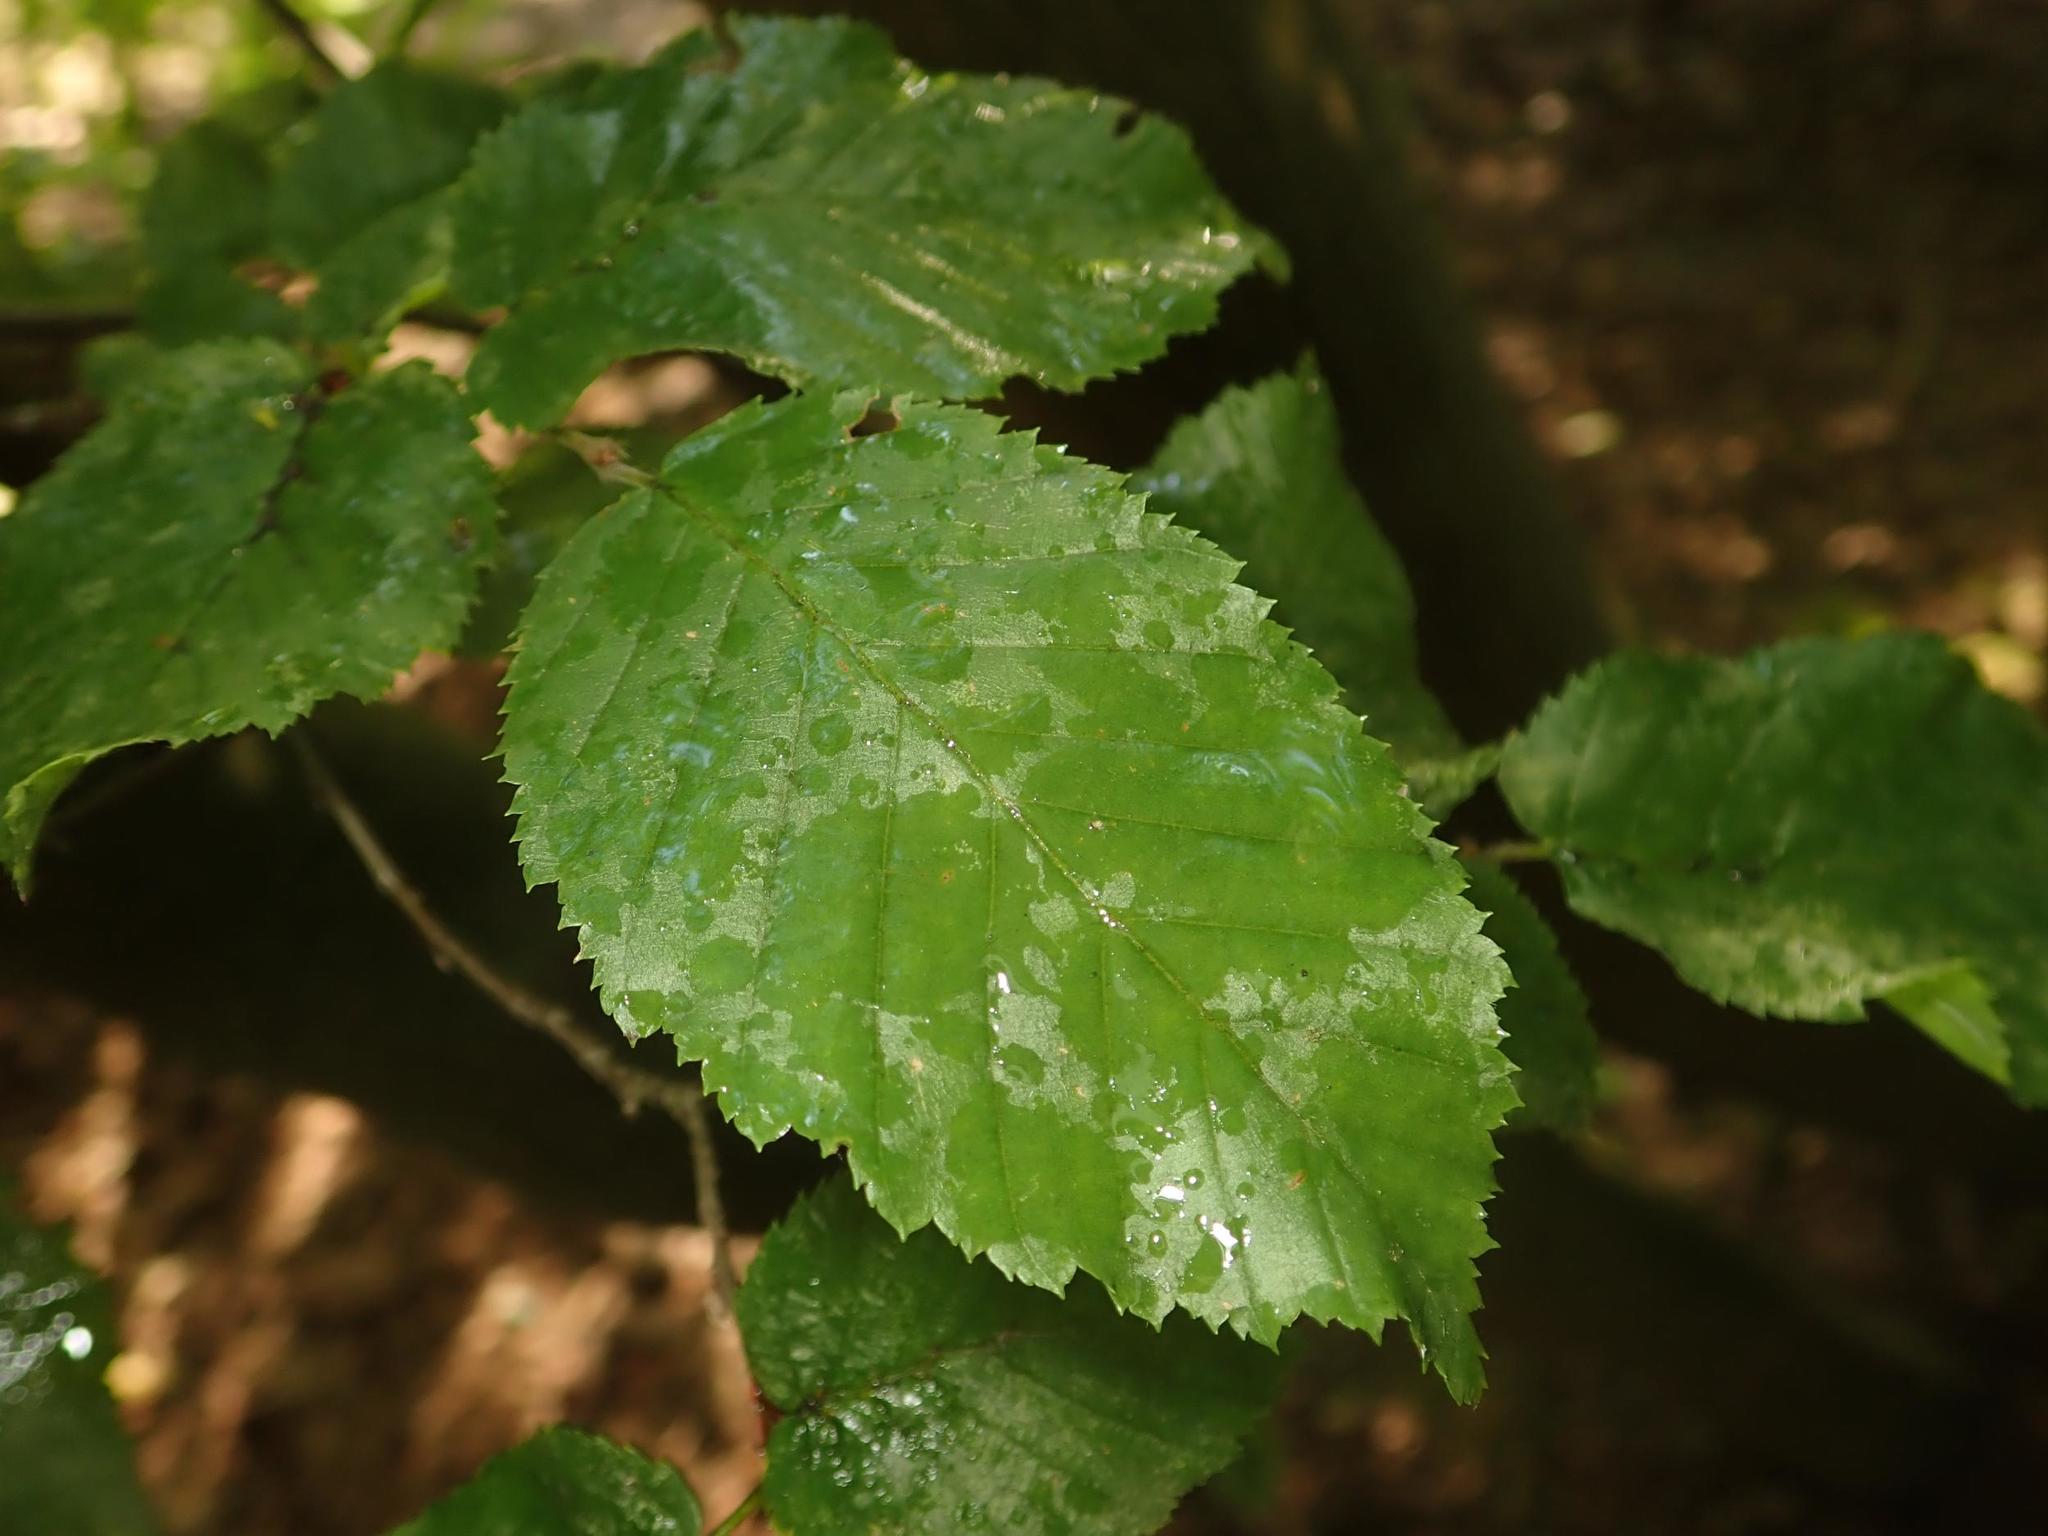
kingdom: Plantae
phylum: Tracheophyta
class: Magnoliopsida
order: Fagales
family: Betulaceae
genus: Carpinus
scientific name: Carpinus betulus
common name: Hornbeam
